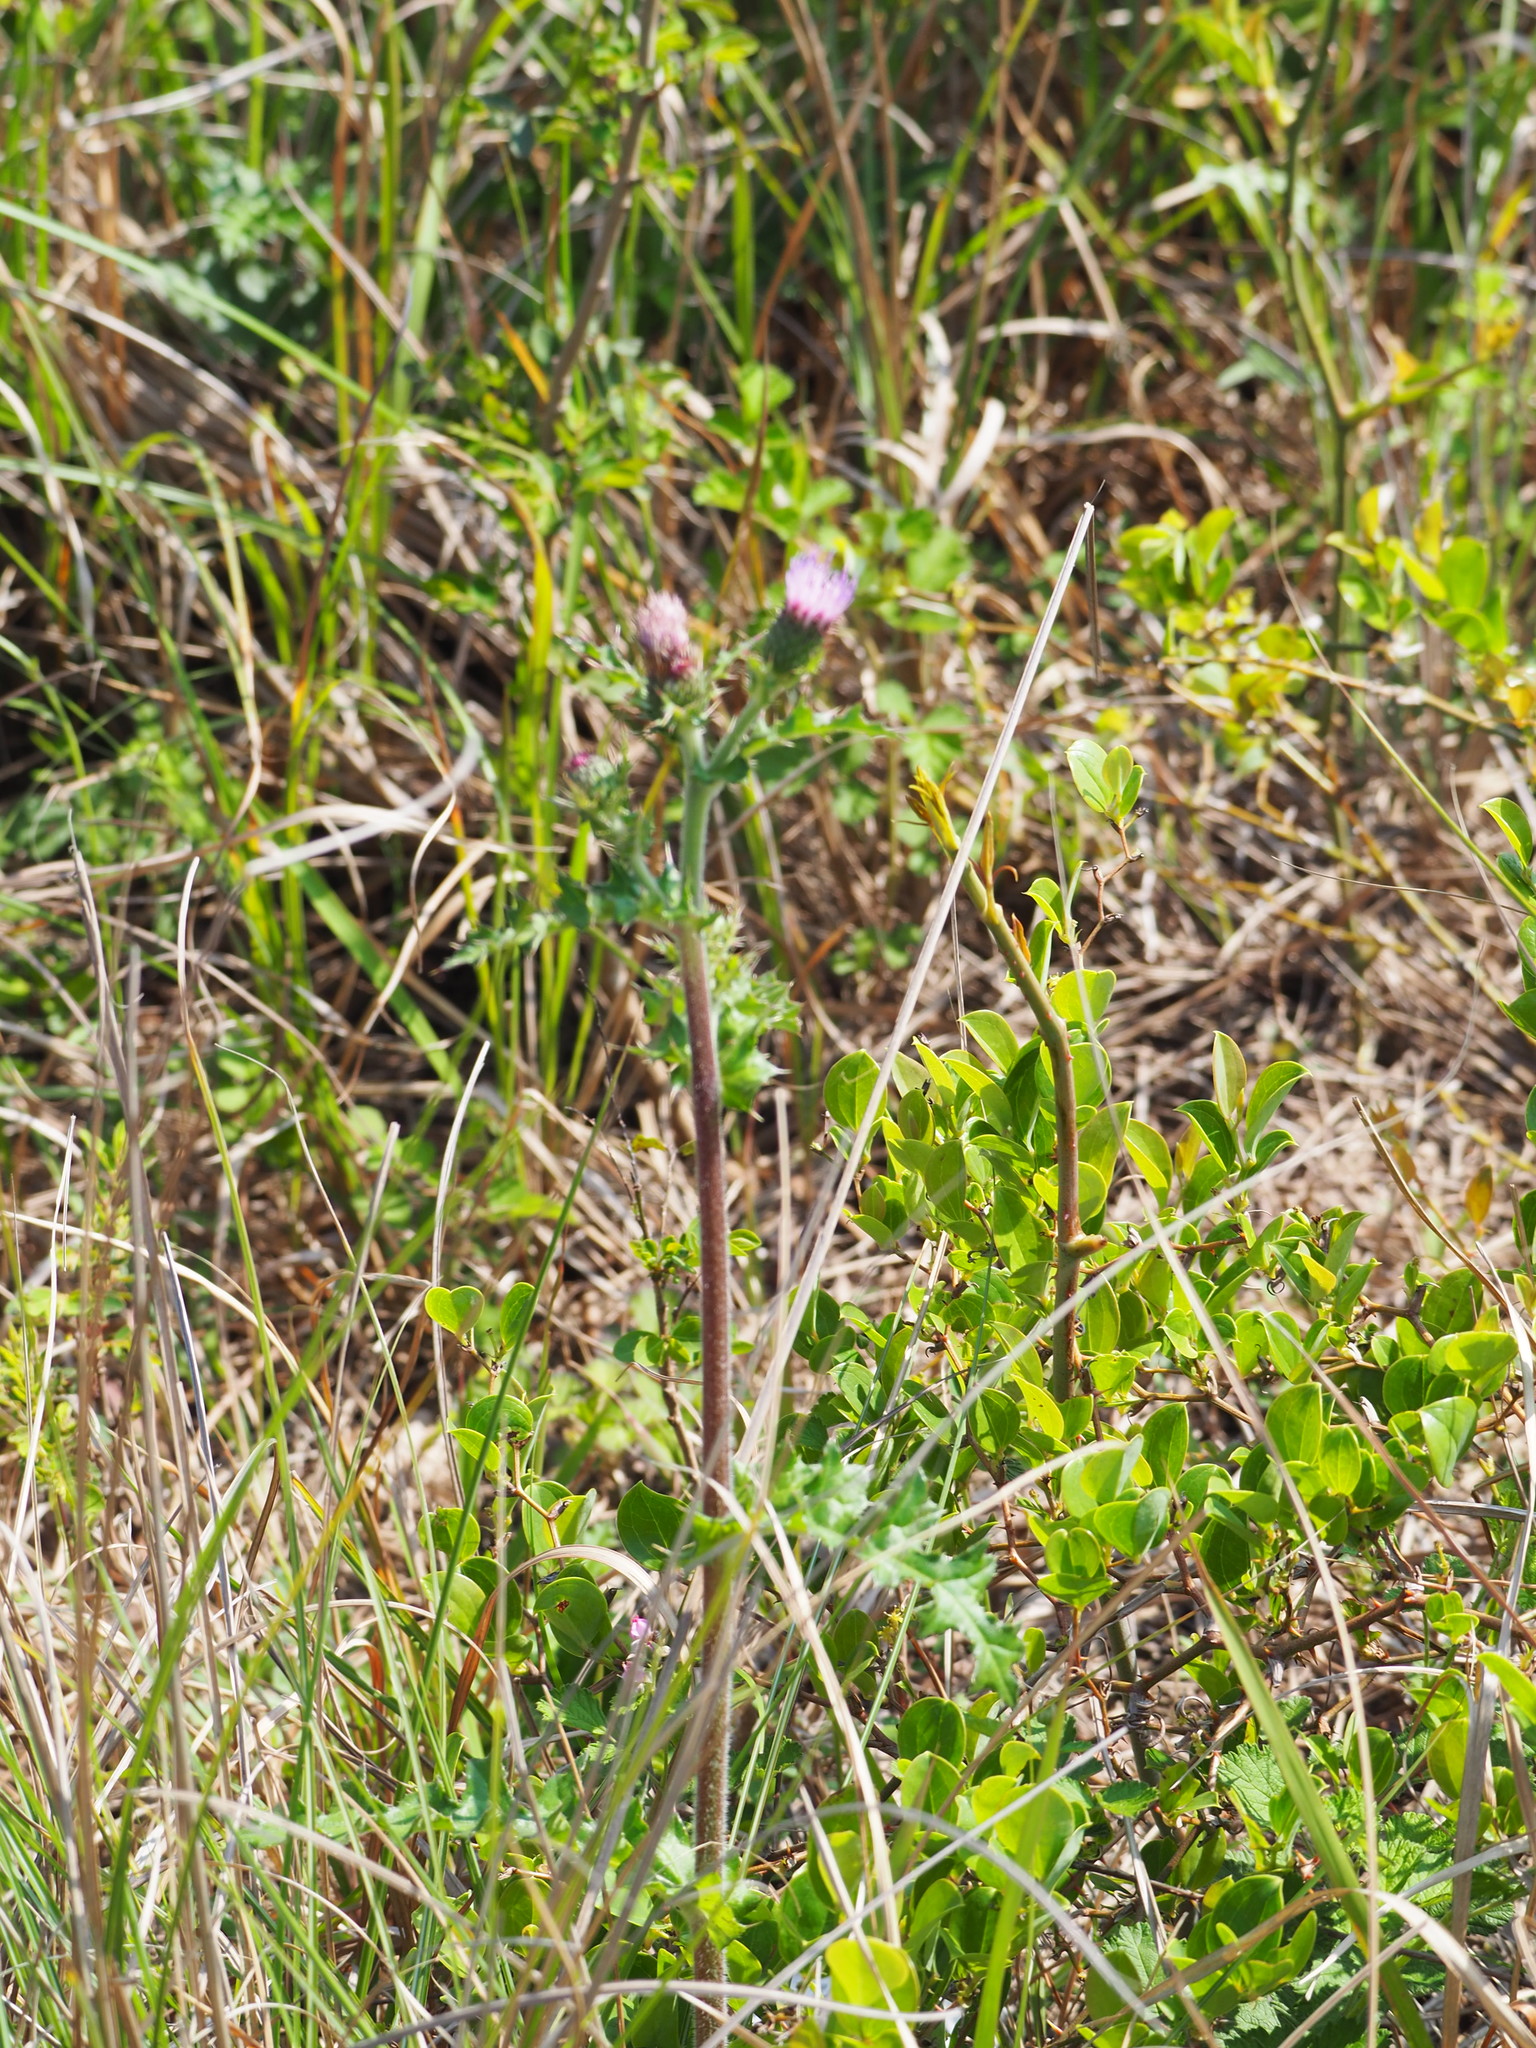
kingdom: Plantae
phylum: Tracheophyta
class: Magnoliopsida
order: Asterales
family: Asteraceae
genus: Cirsium
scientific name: Cirsium japonicum
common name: Japanese thistle
